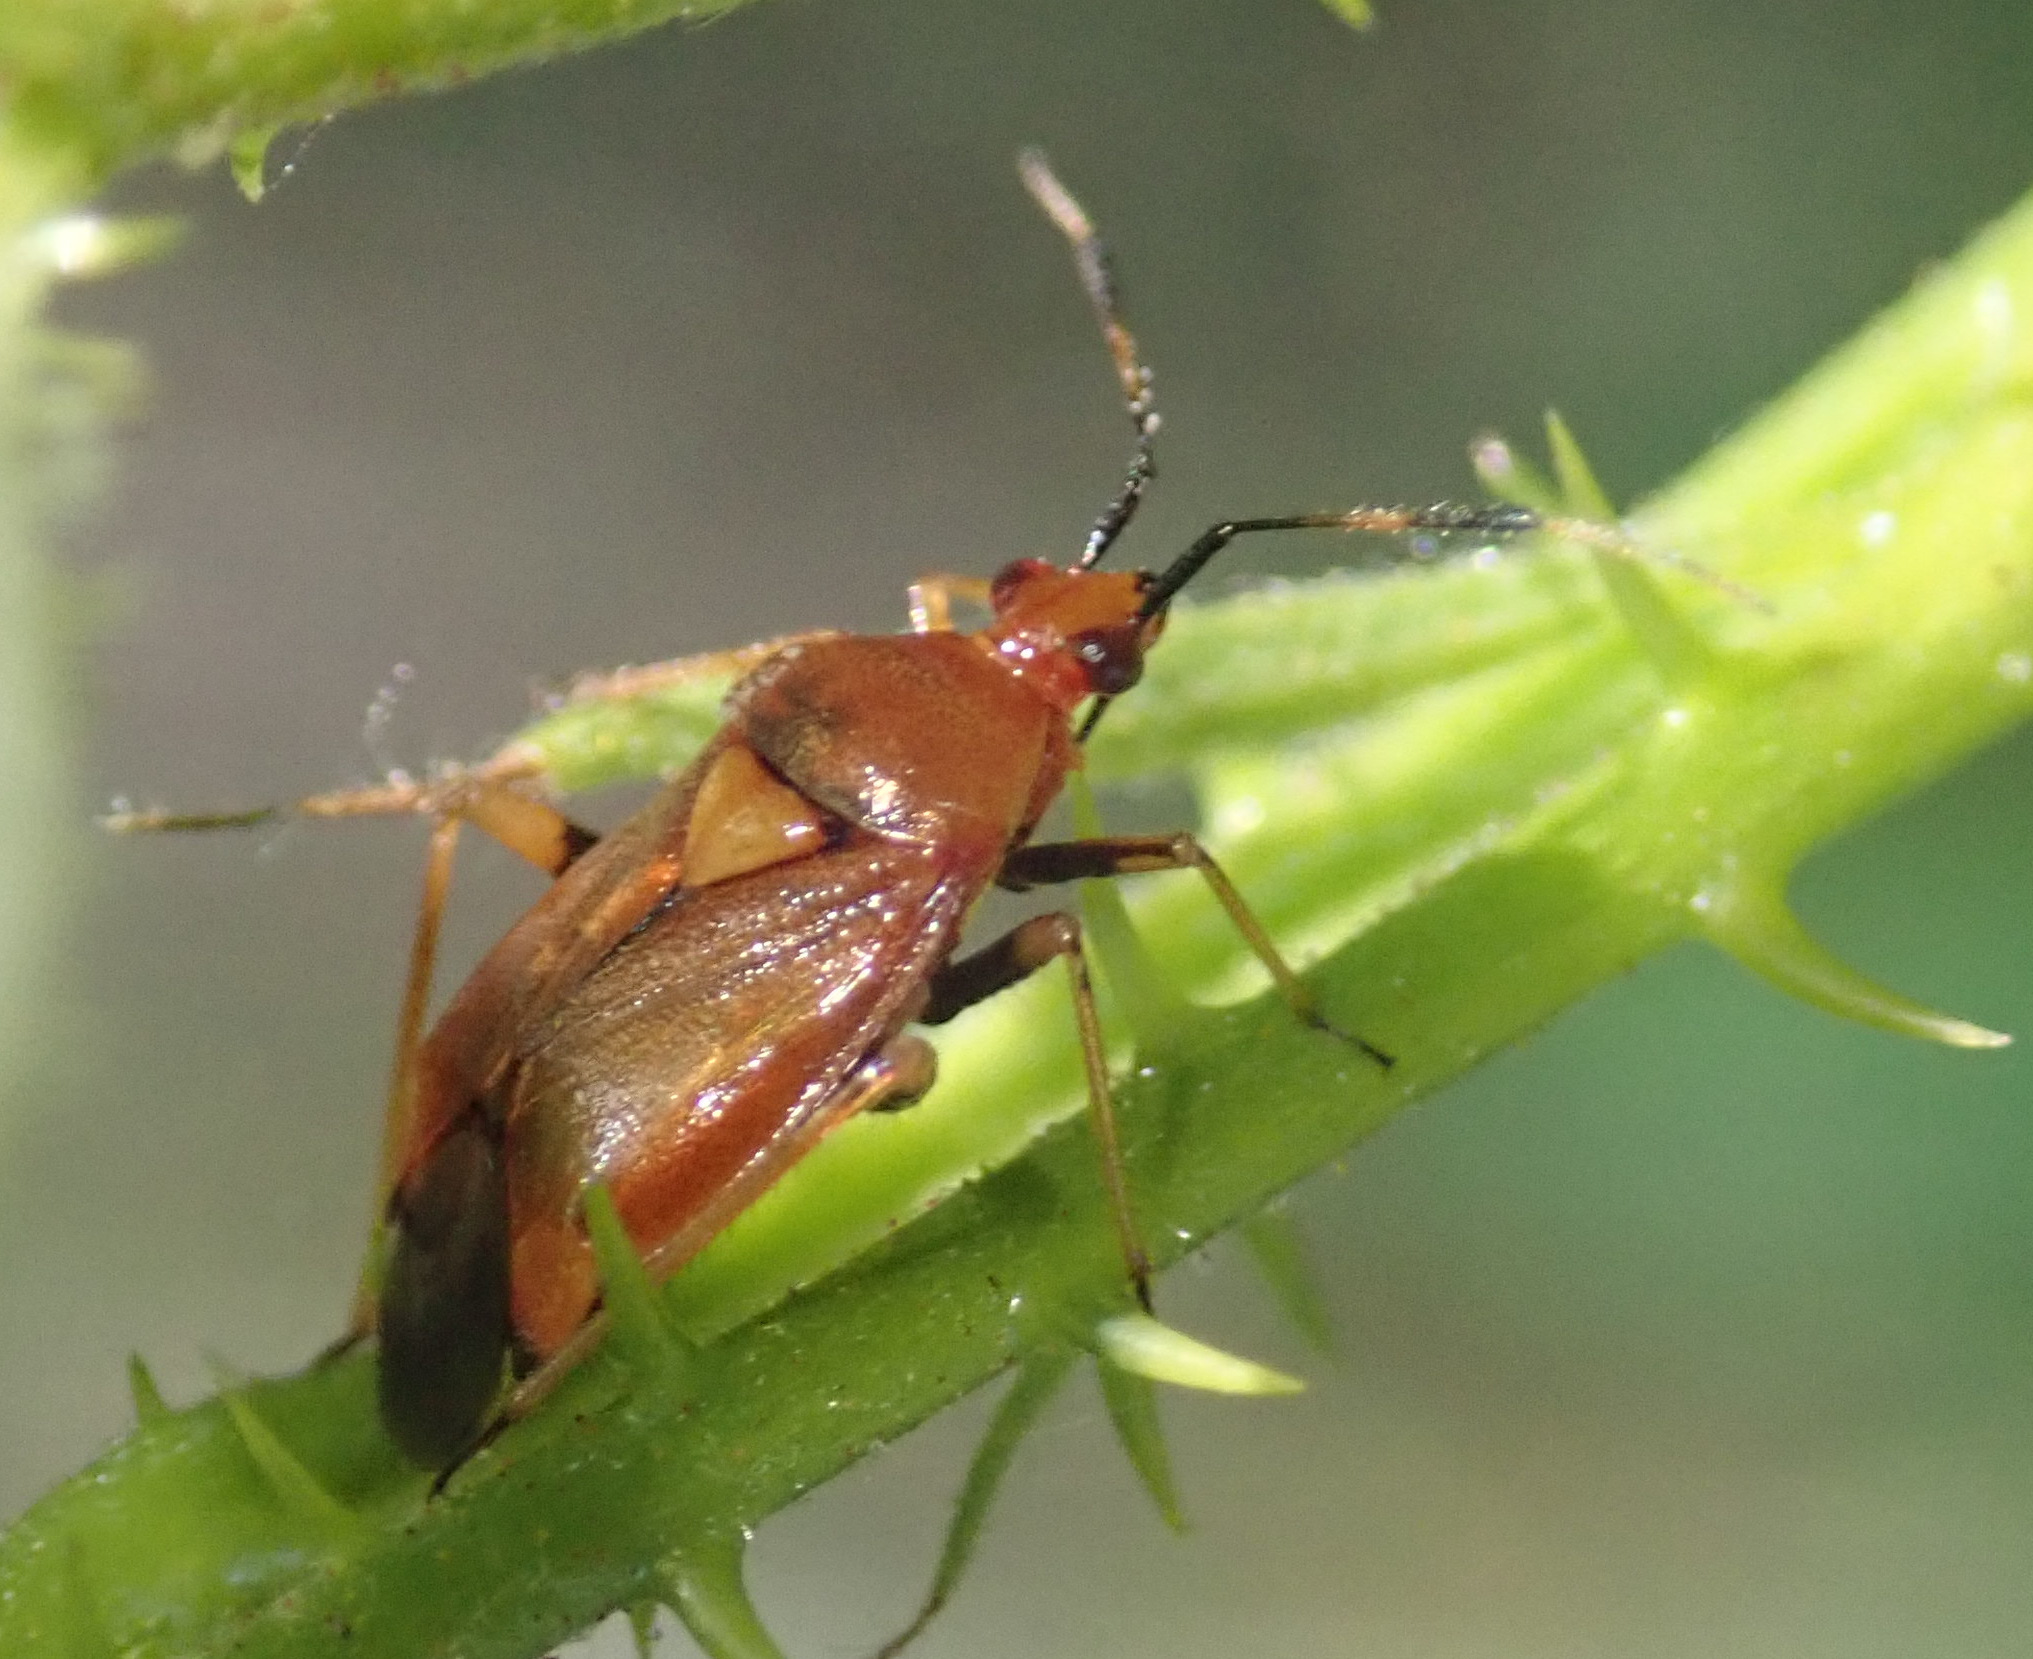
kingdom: Animalia
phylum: Arthropoda
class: Insecta
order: Hemiptera
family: Miridae
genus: Deraeocoris
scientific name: Deraeocoris ruber
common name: Plant bug
